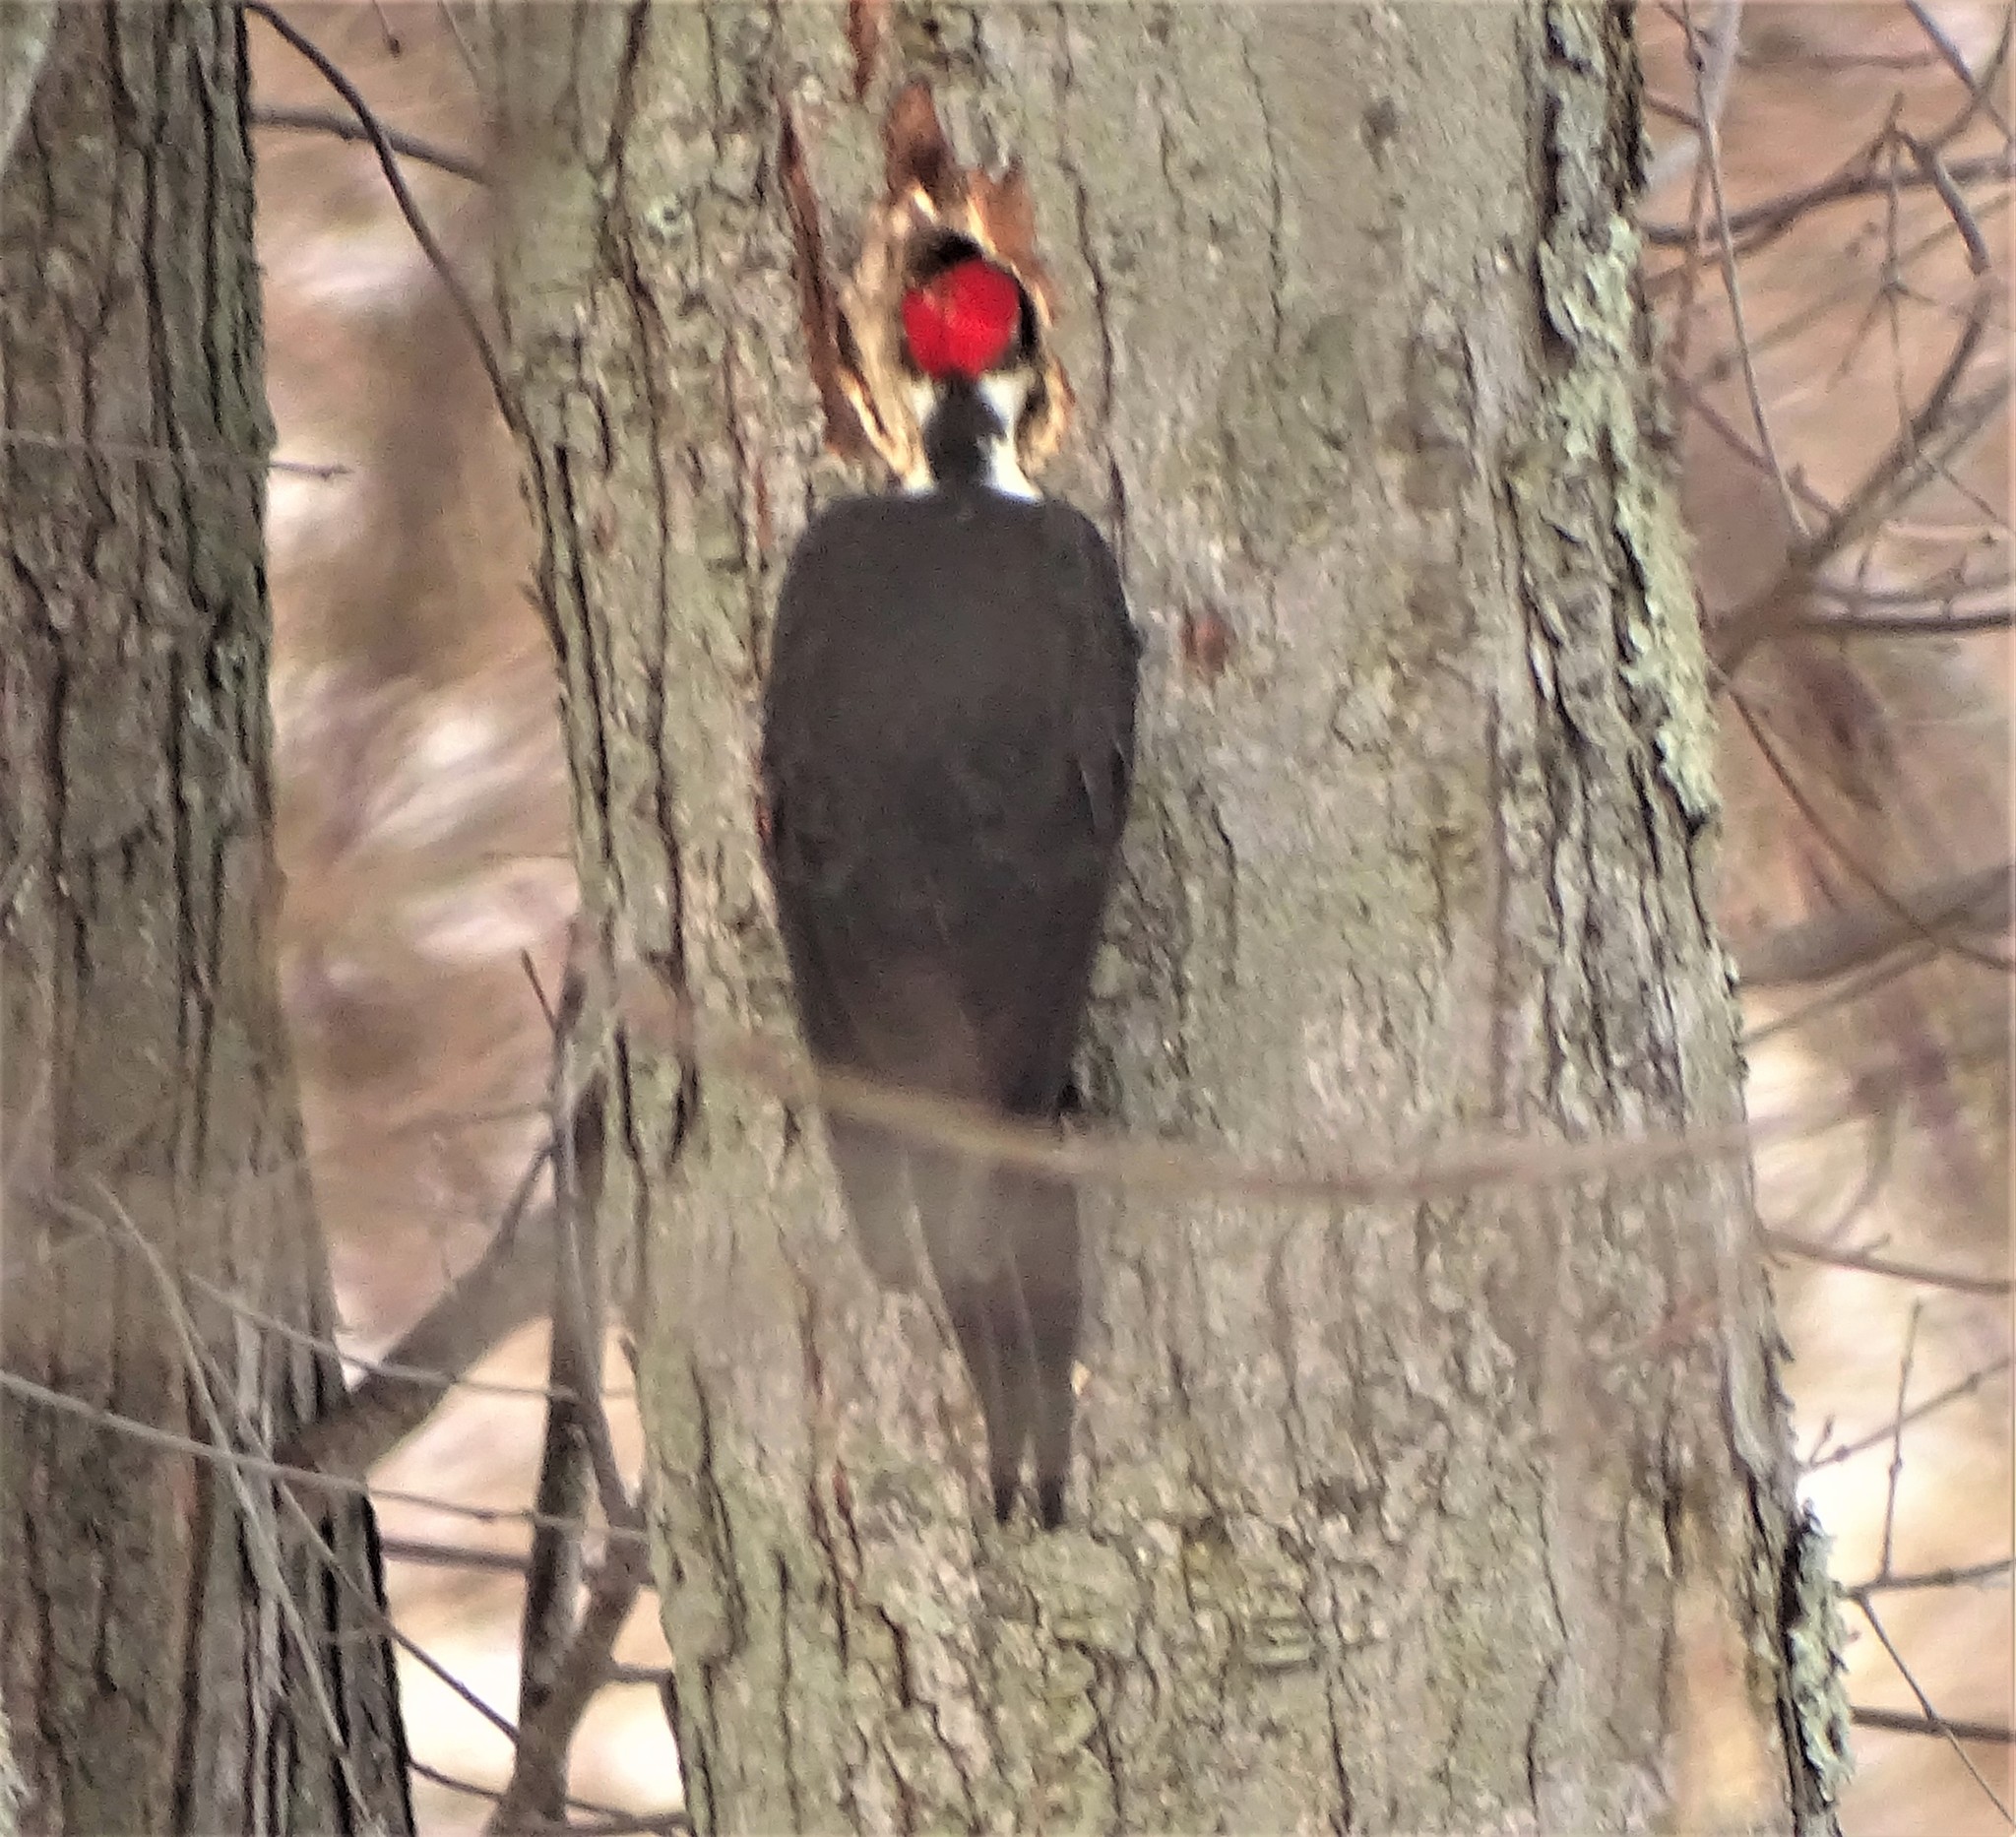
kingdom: Animalia
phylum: Chordata
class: Aves
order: Piciformes
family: Picidae
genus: Dryocopus
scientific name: Dryocopus pileatus
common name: Pileated woodpecker
